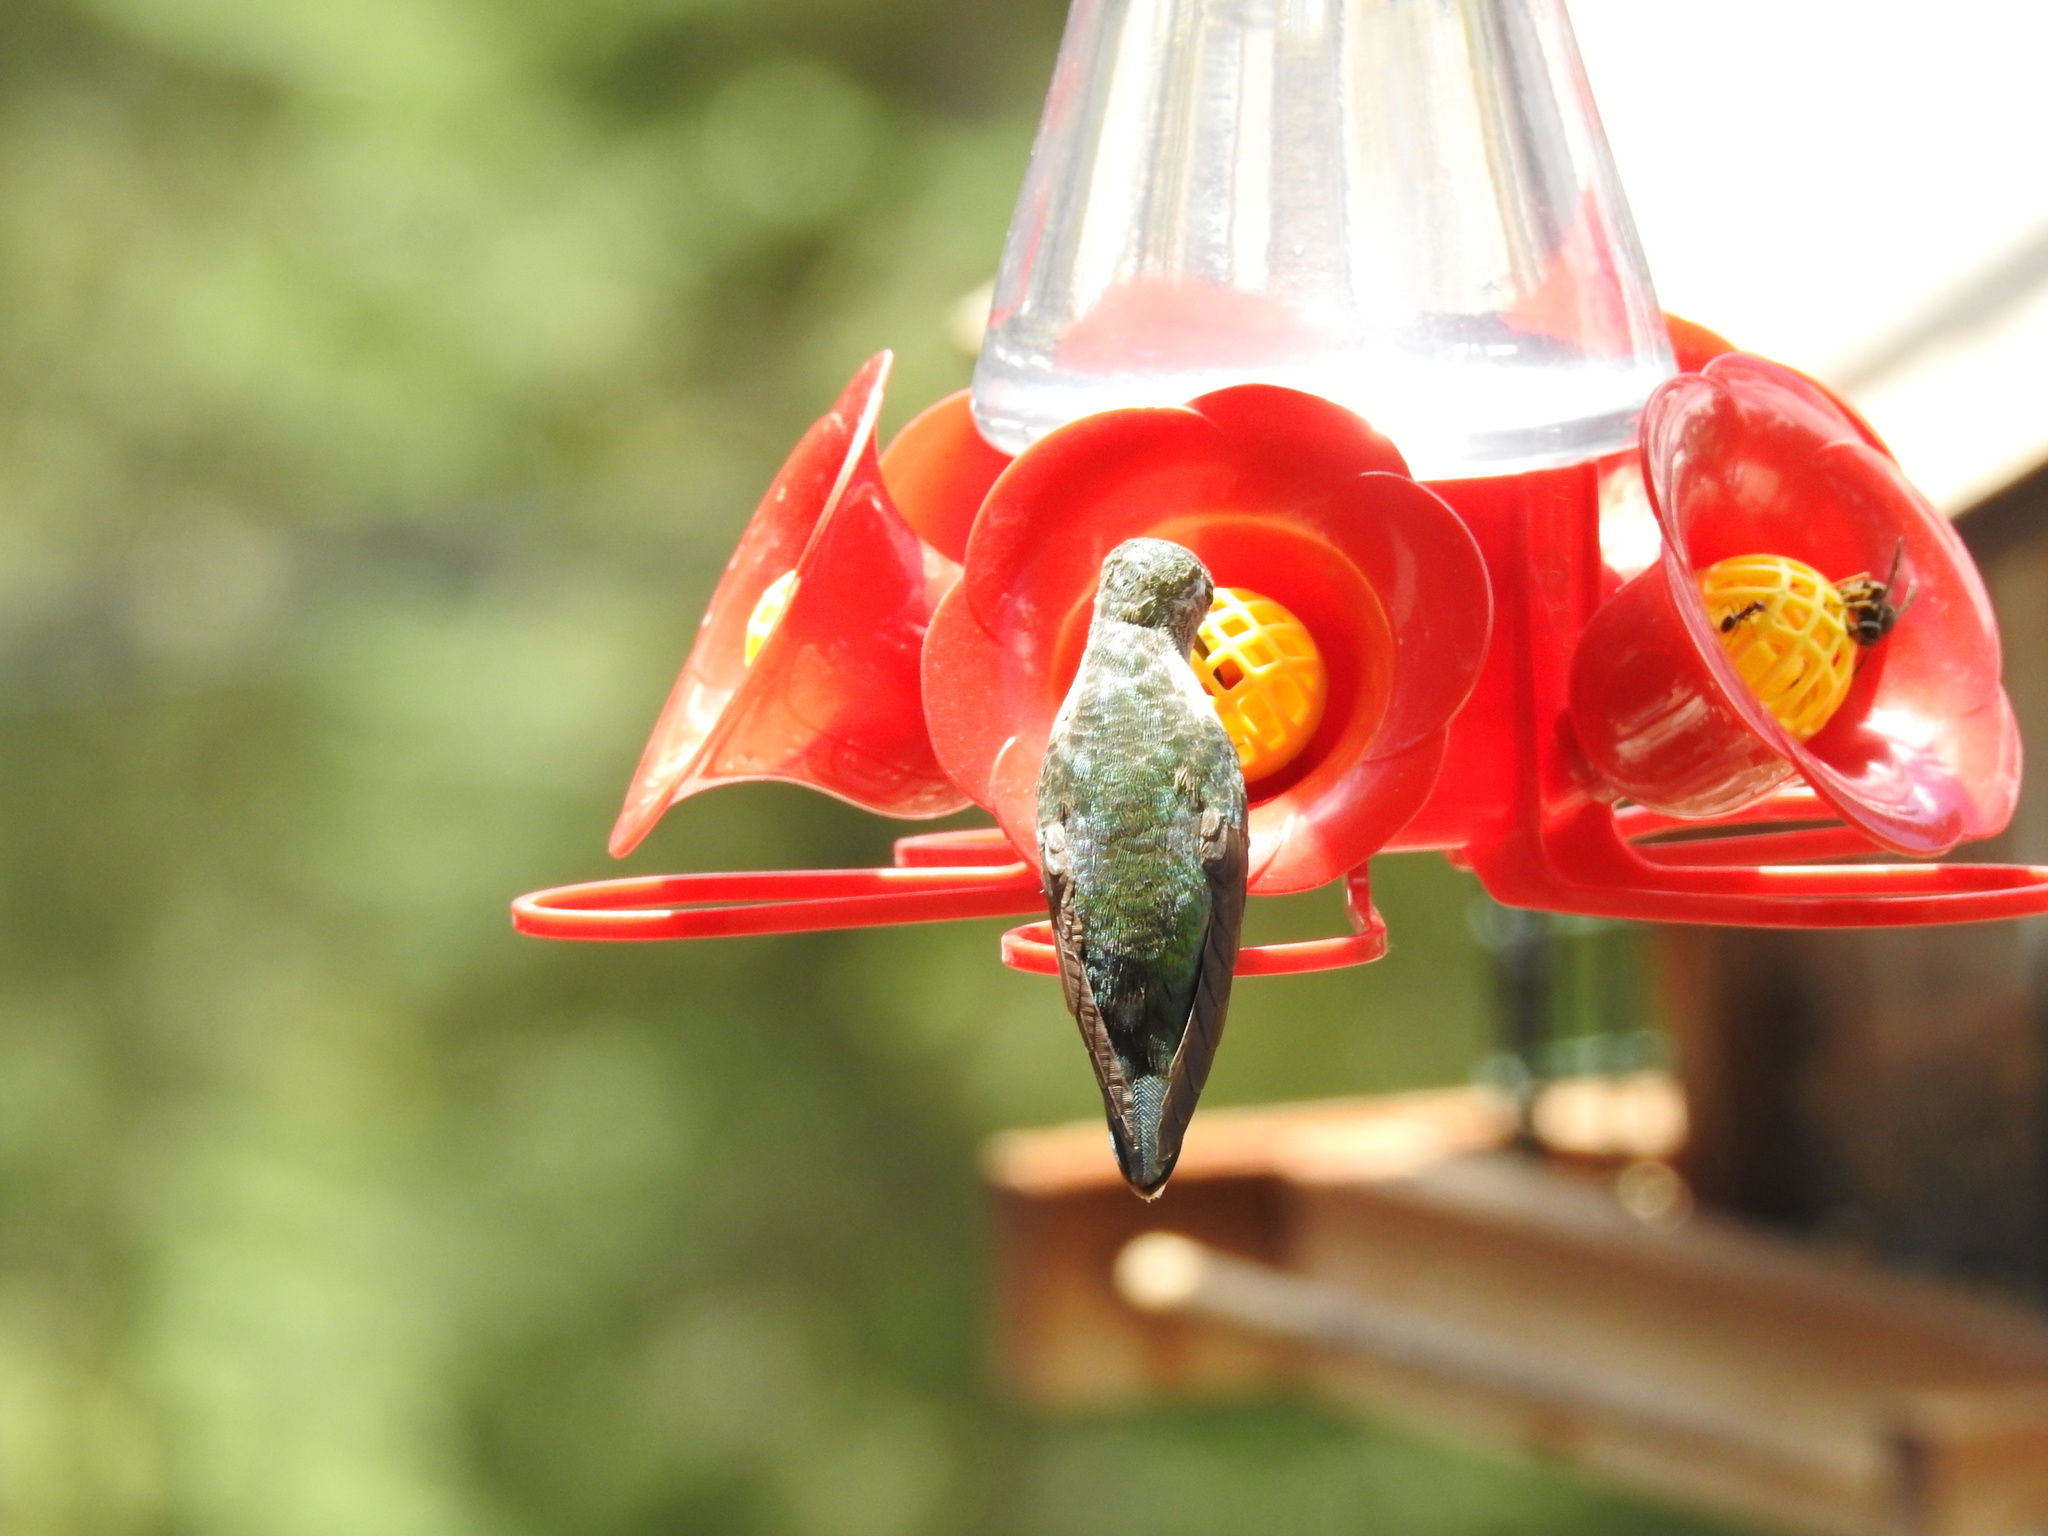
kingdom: Animalia
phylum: Chordata
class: Aves
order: Apodiformes
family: Trochilidae
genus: Selasphorus
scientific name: Selasphorus platycercus
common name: Broad-tailed hummingbird
